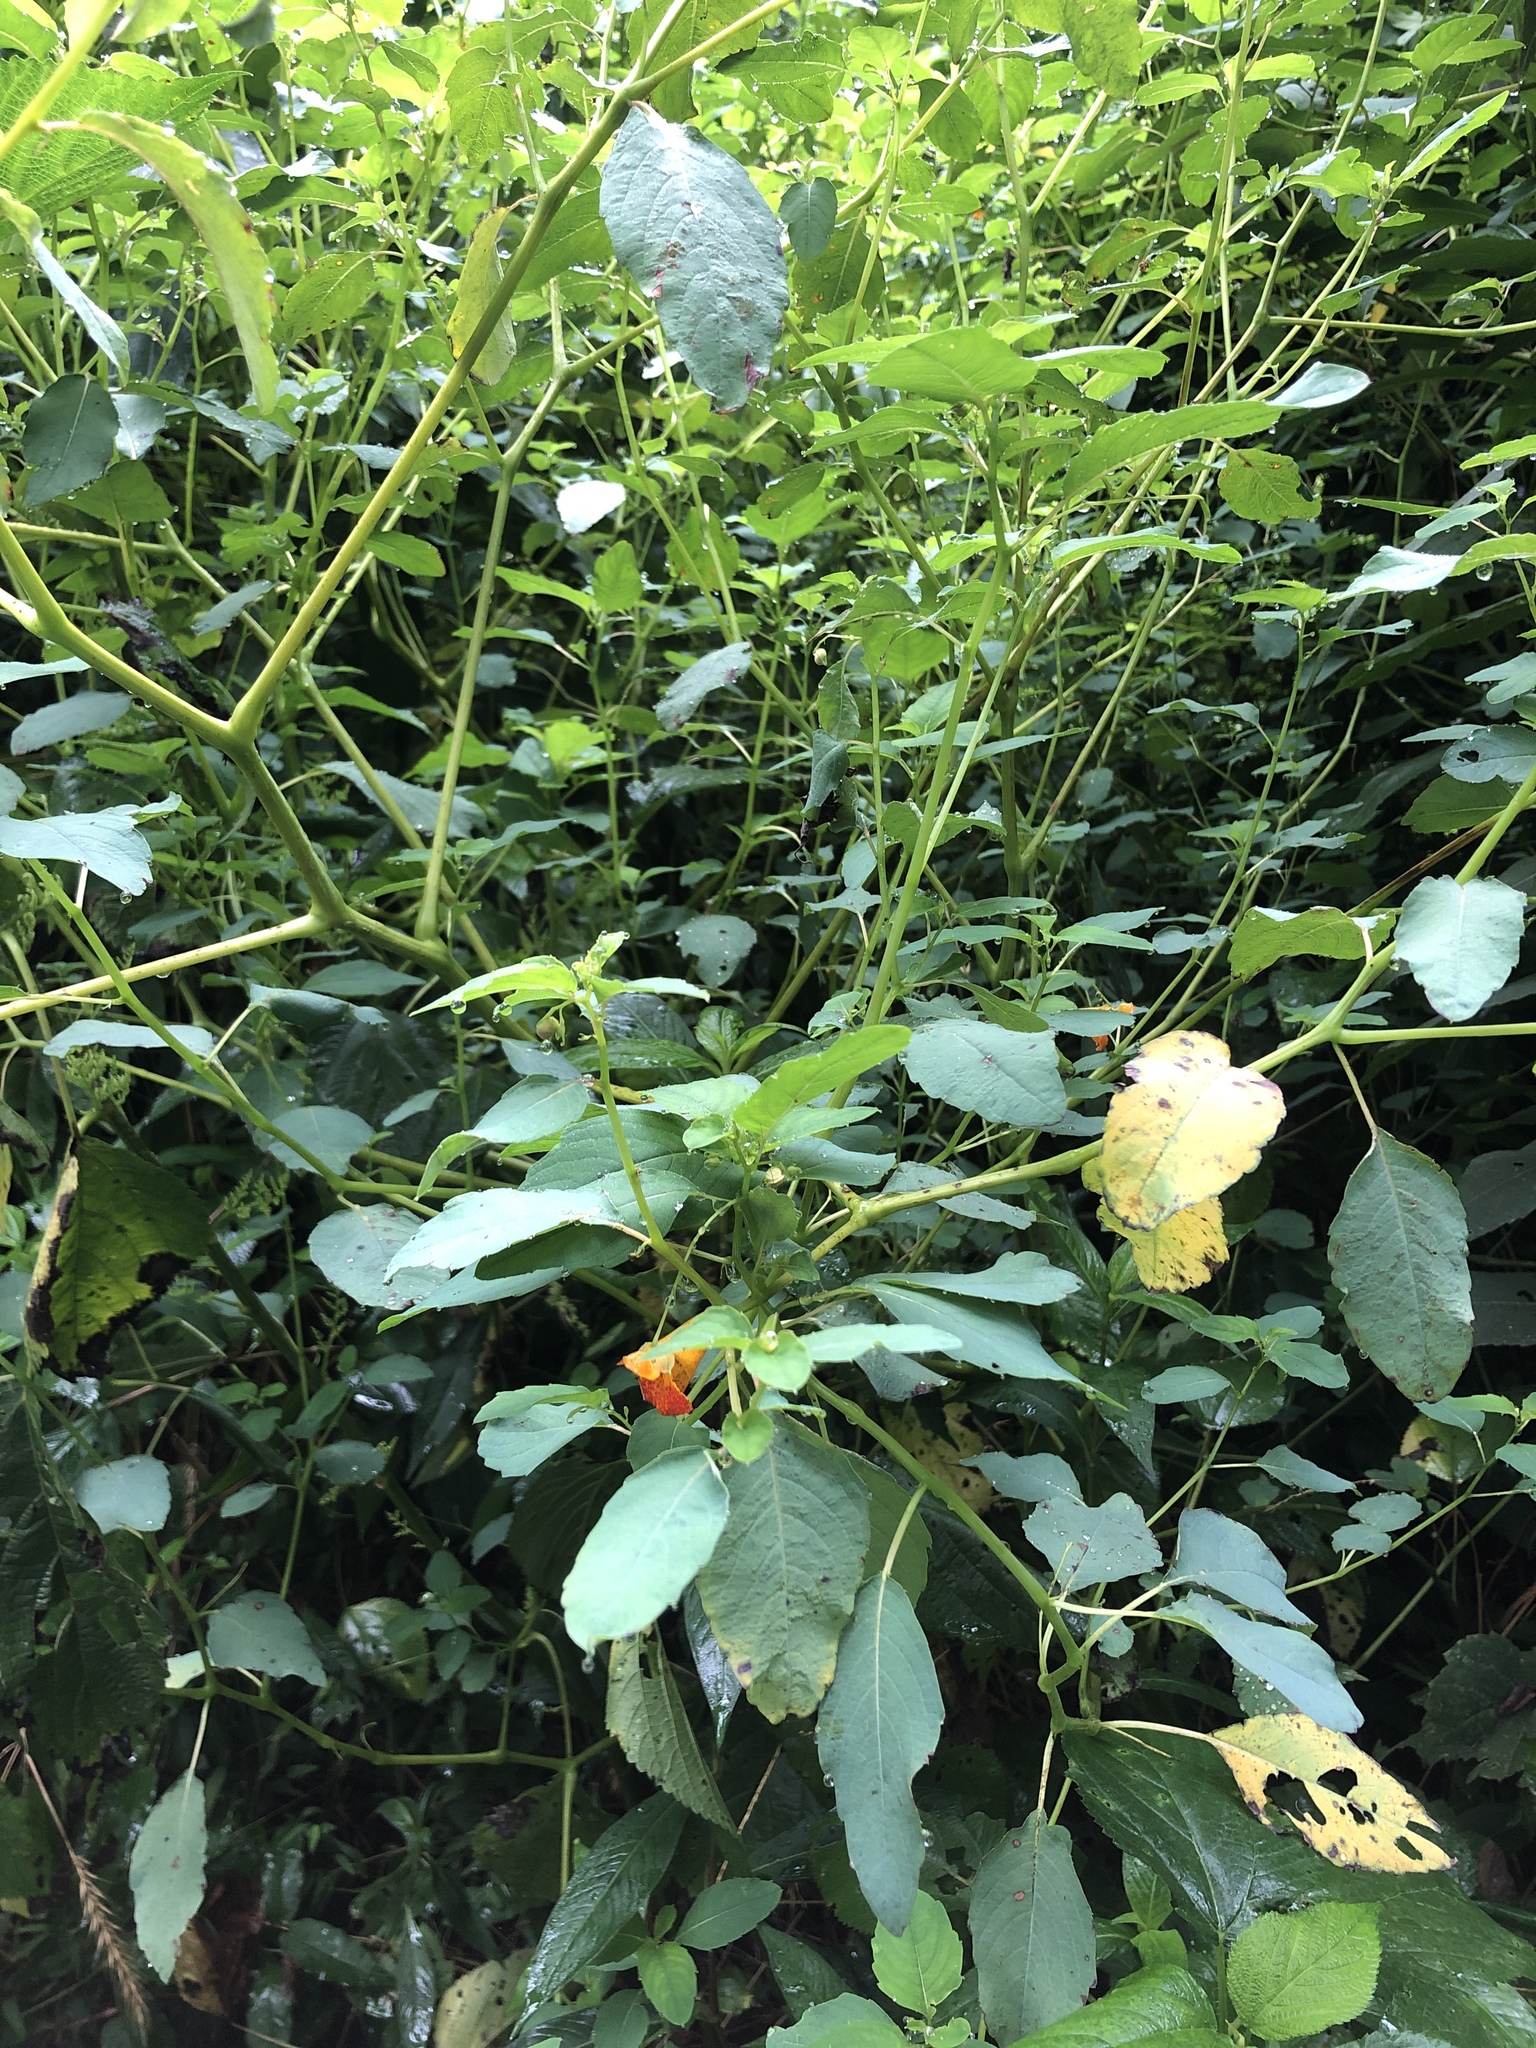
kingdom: Plantae
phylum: Tracheophyta
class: Magnoliopsida
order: Ericales
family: Balsaminaceae
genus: Impatiens
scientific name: Impatiens capensis
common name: Orange balsam
